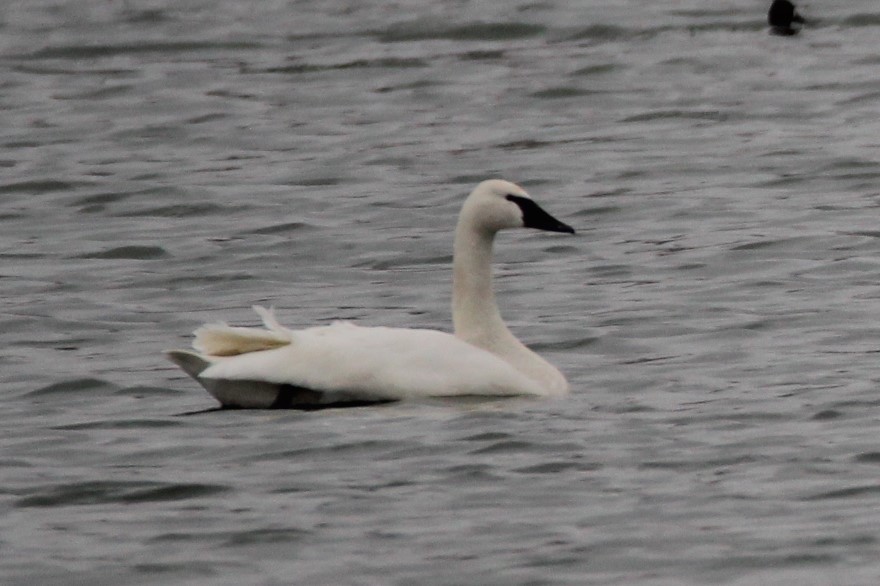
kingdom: Animalia
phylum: Chordata
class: Aves
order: Anseriformes
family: Anatidae
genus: Cygnus
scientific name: Cygnus buccinator
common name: Trumpeter swan
